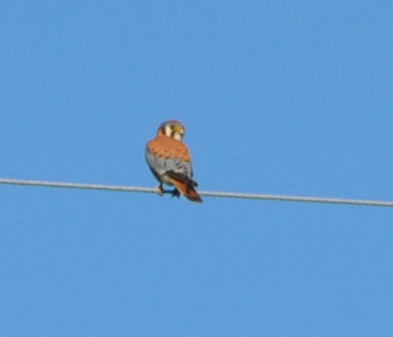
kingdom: Animalia
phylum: Chordata
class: Aves
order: Falconiformes
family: Falconidae
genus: Falco
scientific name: Falco sparverius
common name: American kestrel
